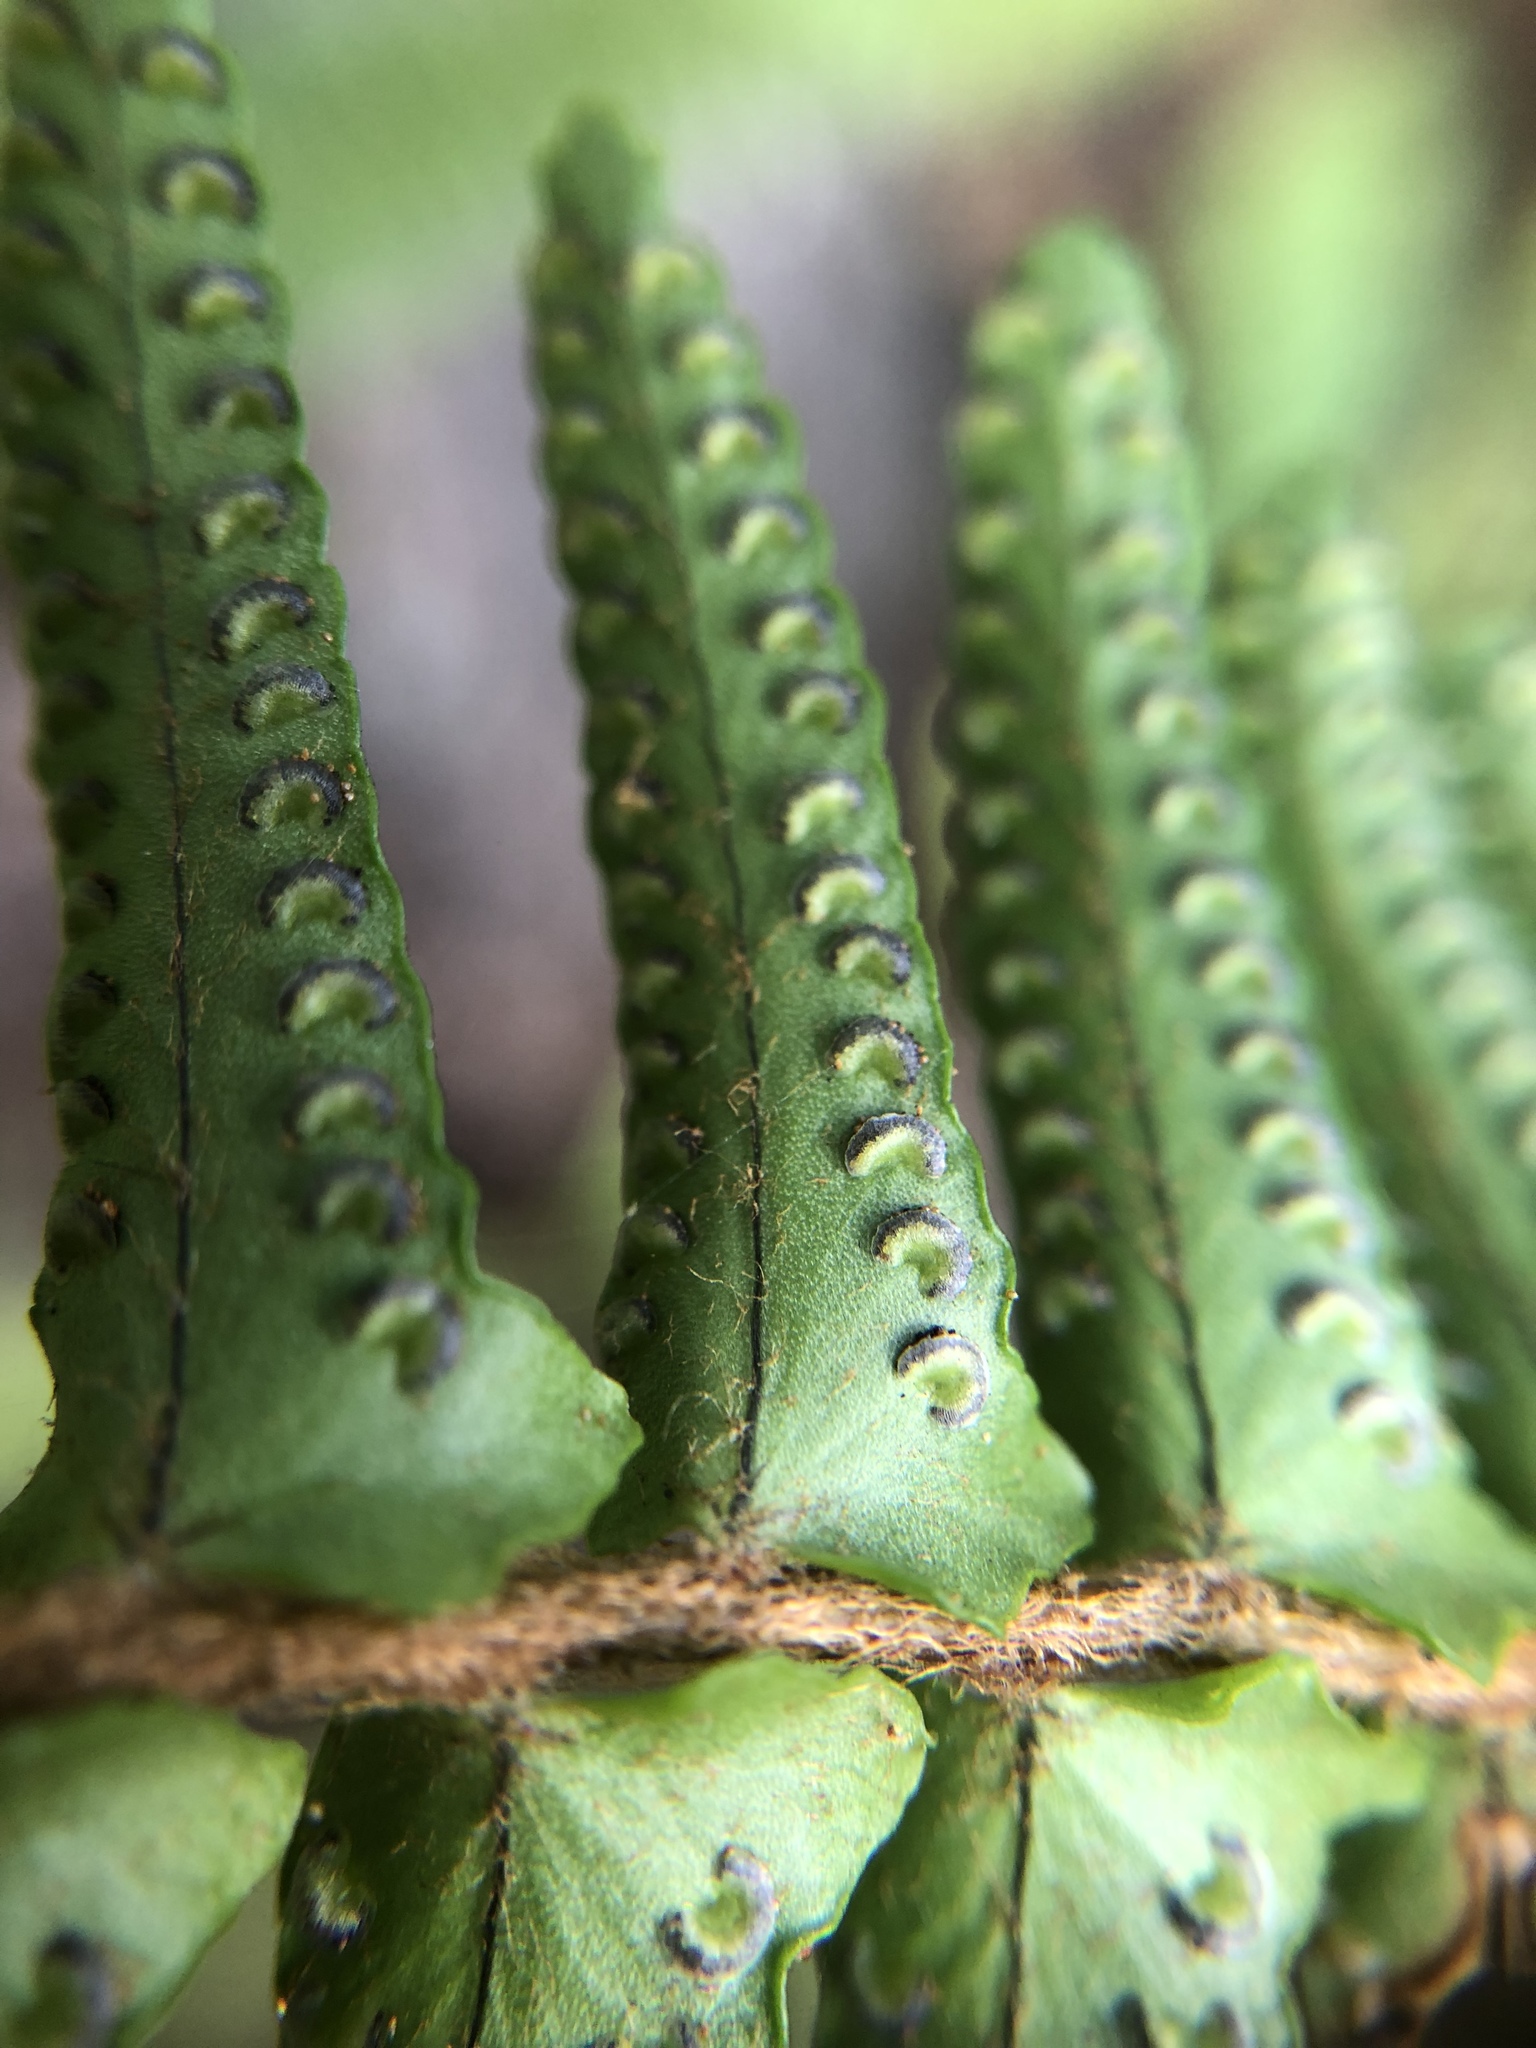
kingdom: Plantae
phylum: Tracheophyta
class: Polypodiopsida
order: Polypodiales
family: Nephrolepidaceae
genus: Nephrolepis
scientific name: Nephrolepis cordifolia
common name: Narrow swordfern
